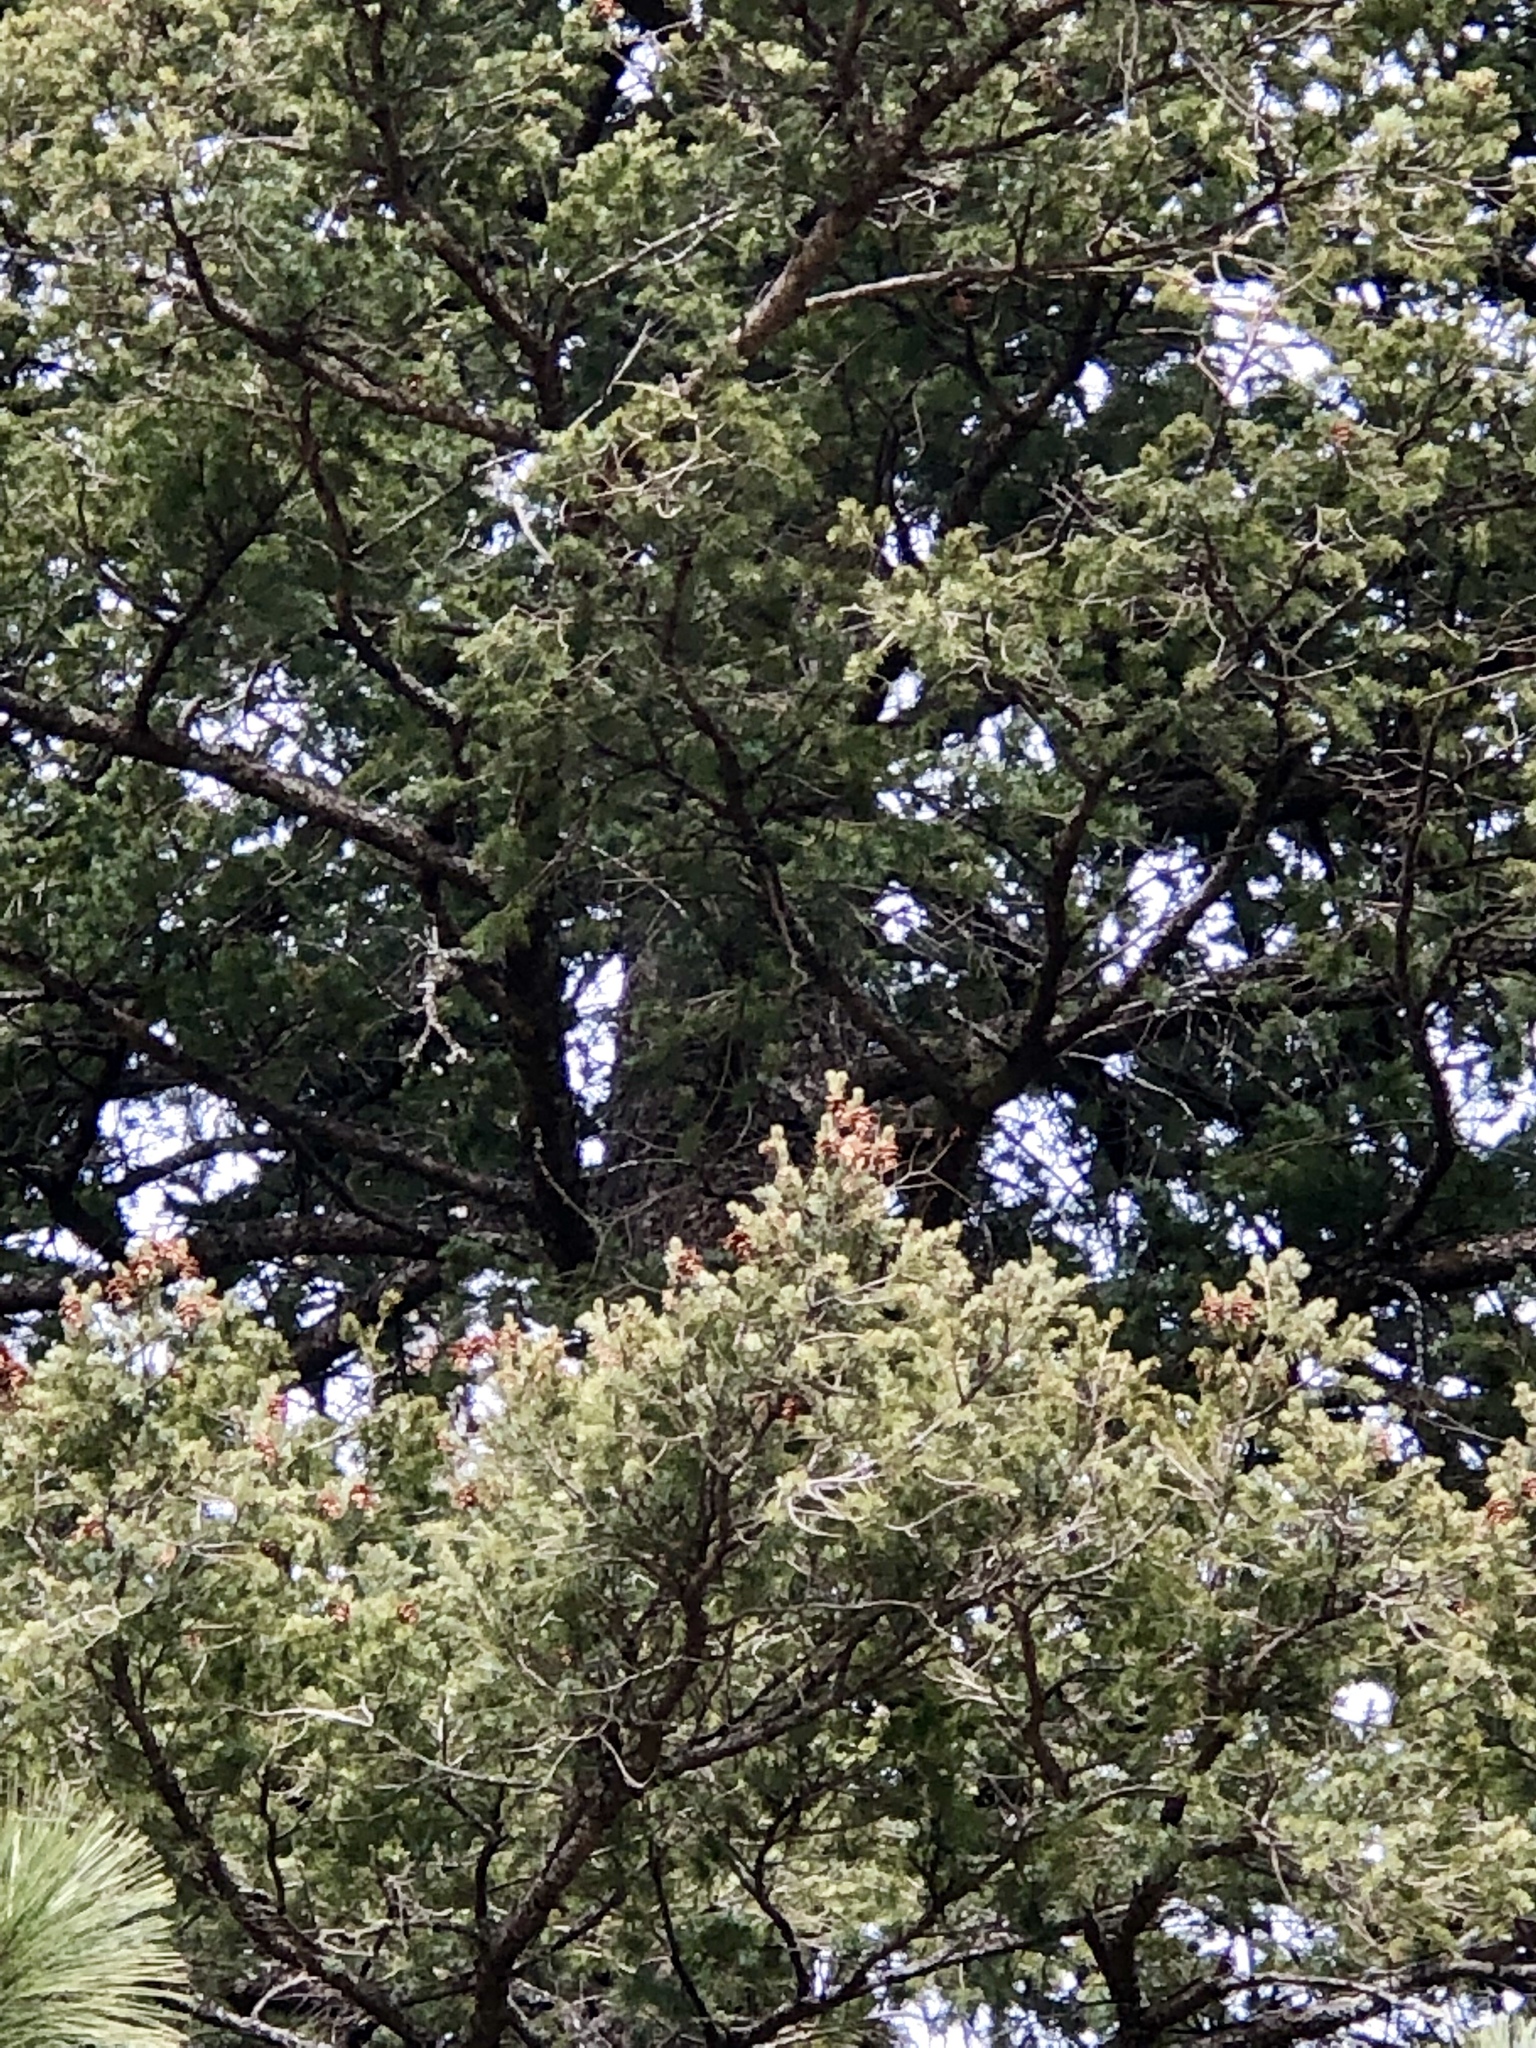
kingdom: Plantae
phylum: Tracheophyta
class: Pinopsida
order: Pinales
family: Pinaceae
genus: Pseudotsuga
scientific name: Pseudotsuga menziesii
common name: Douglas fir
